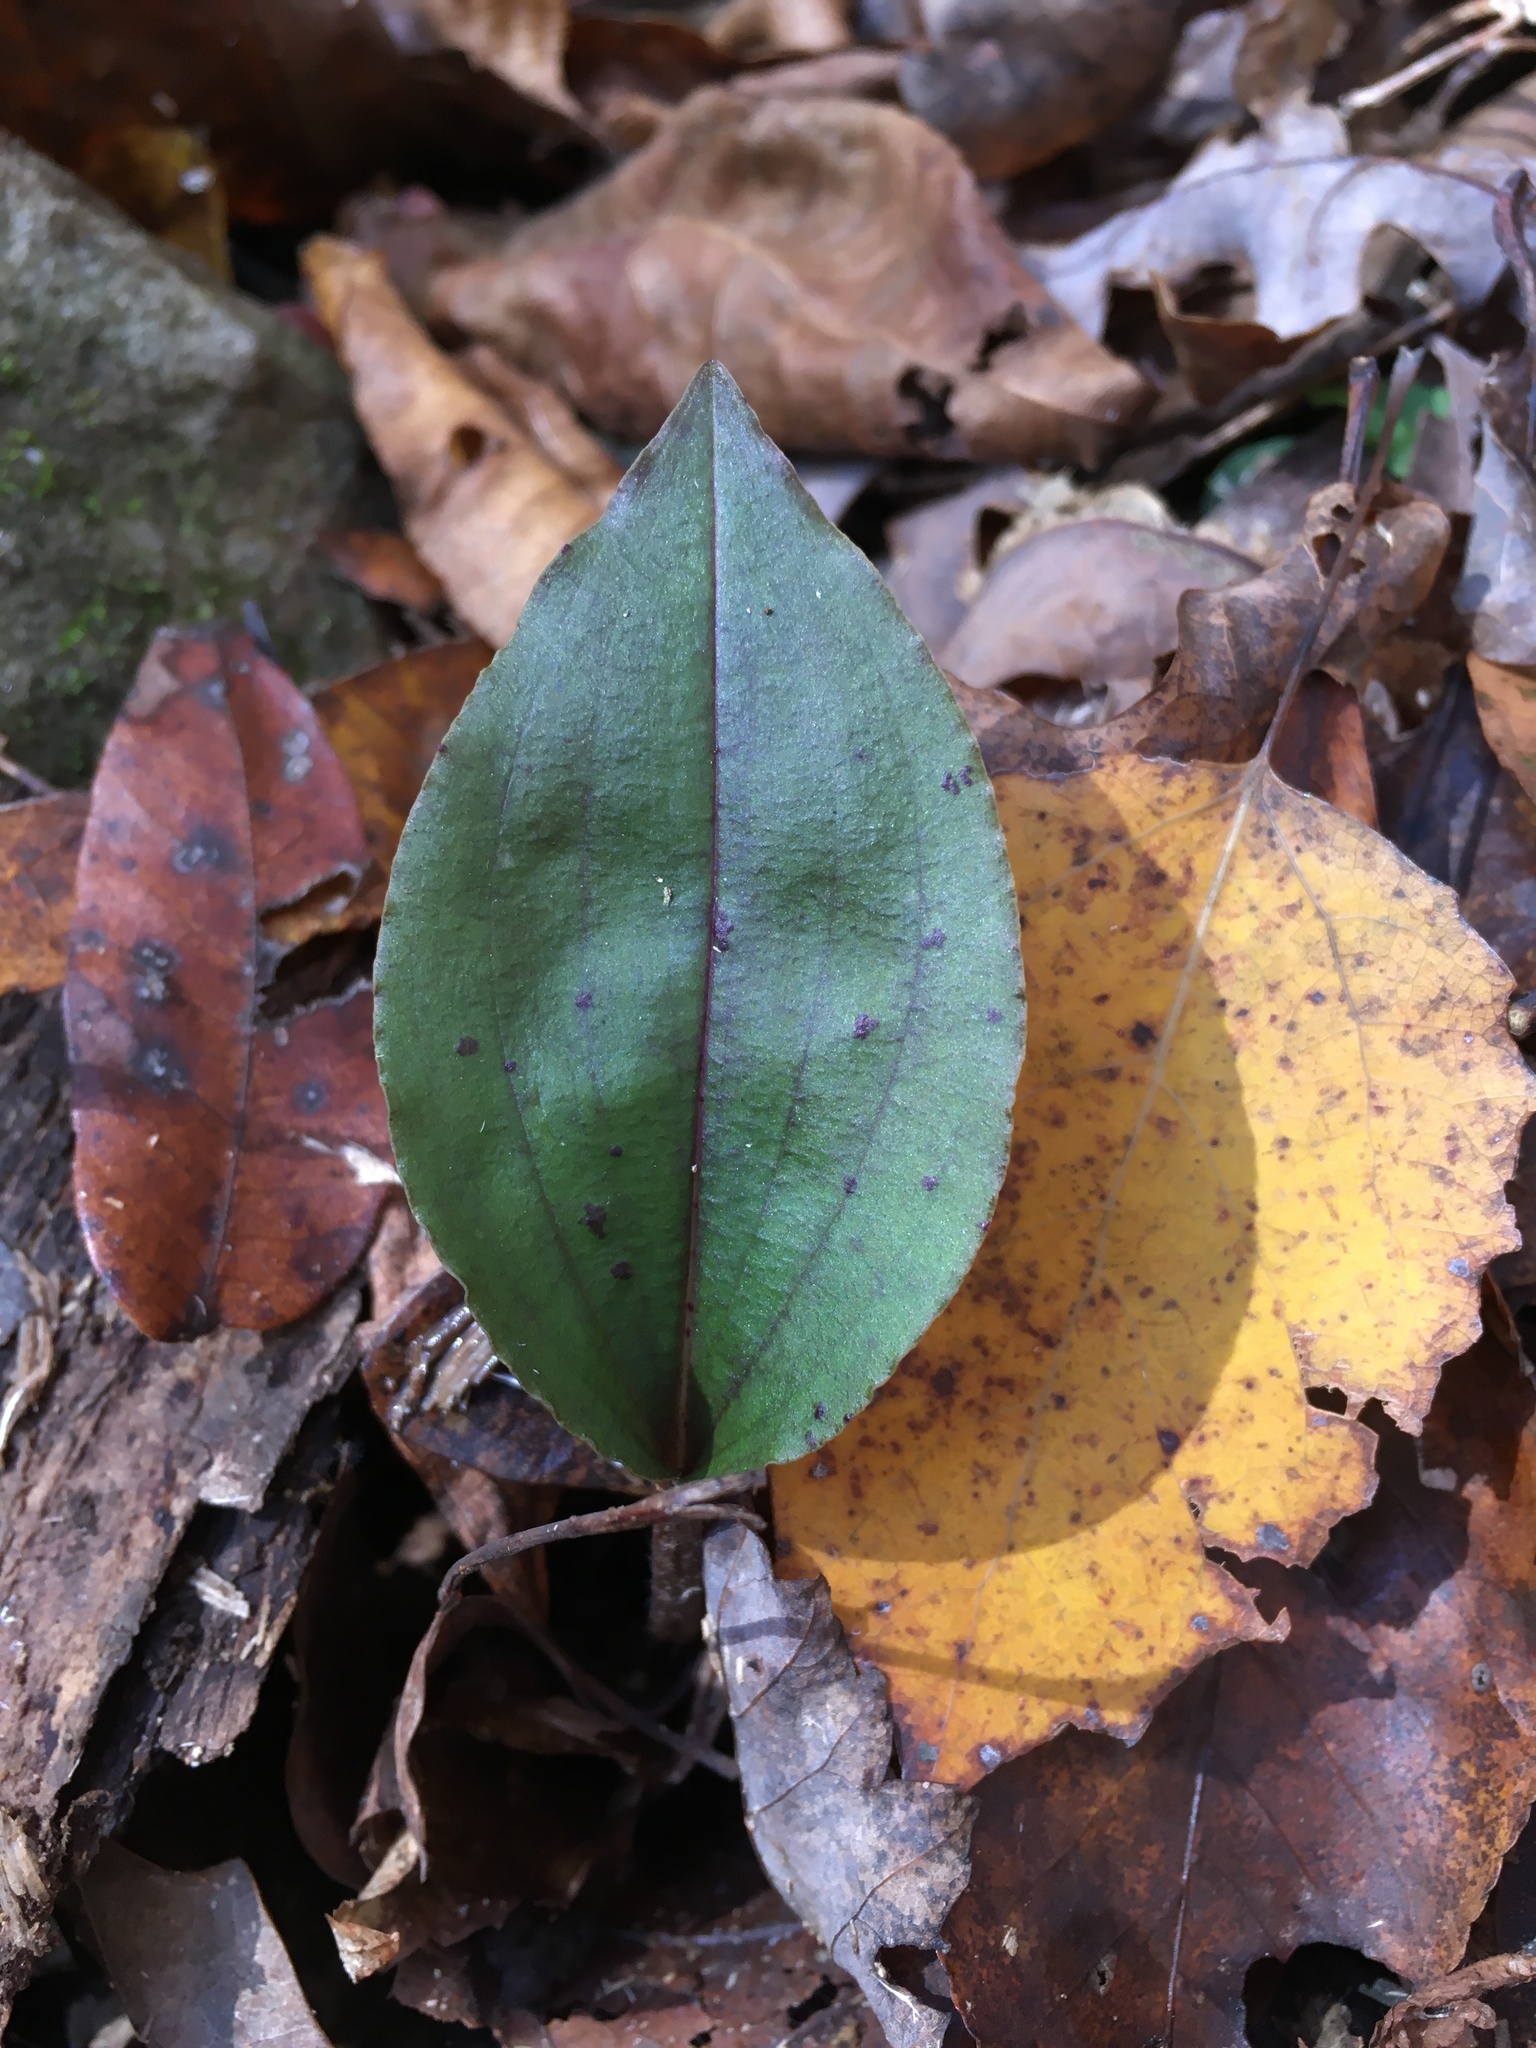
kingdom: Plantae
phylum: Tracheophyta
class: Liliopsida
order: Asparagales
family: Orchidaceae
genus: Tipularia
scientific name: Tipularia discolor
